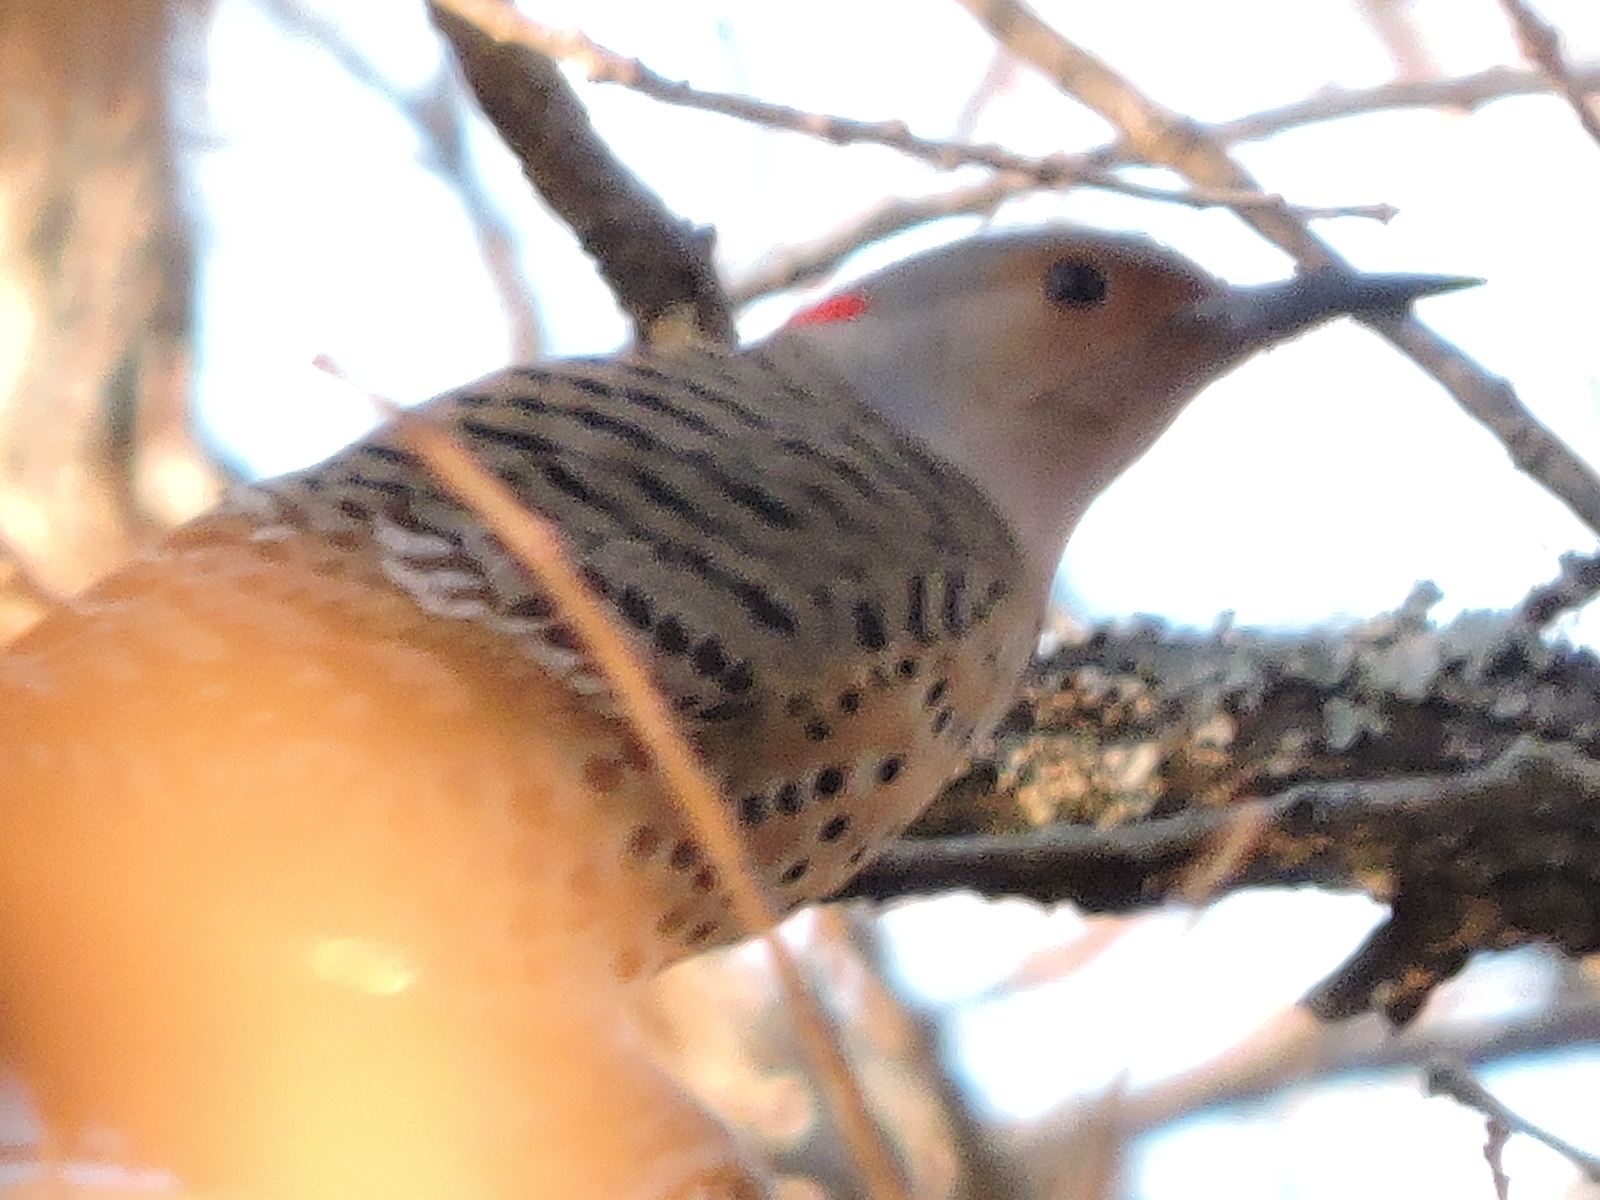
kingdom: Animalia
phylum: Chordata
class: Aves
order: Piciformes
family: Picidae
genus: Colaptes
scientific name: Colaptes auratus
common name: Northern flicker
